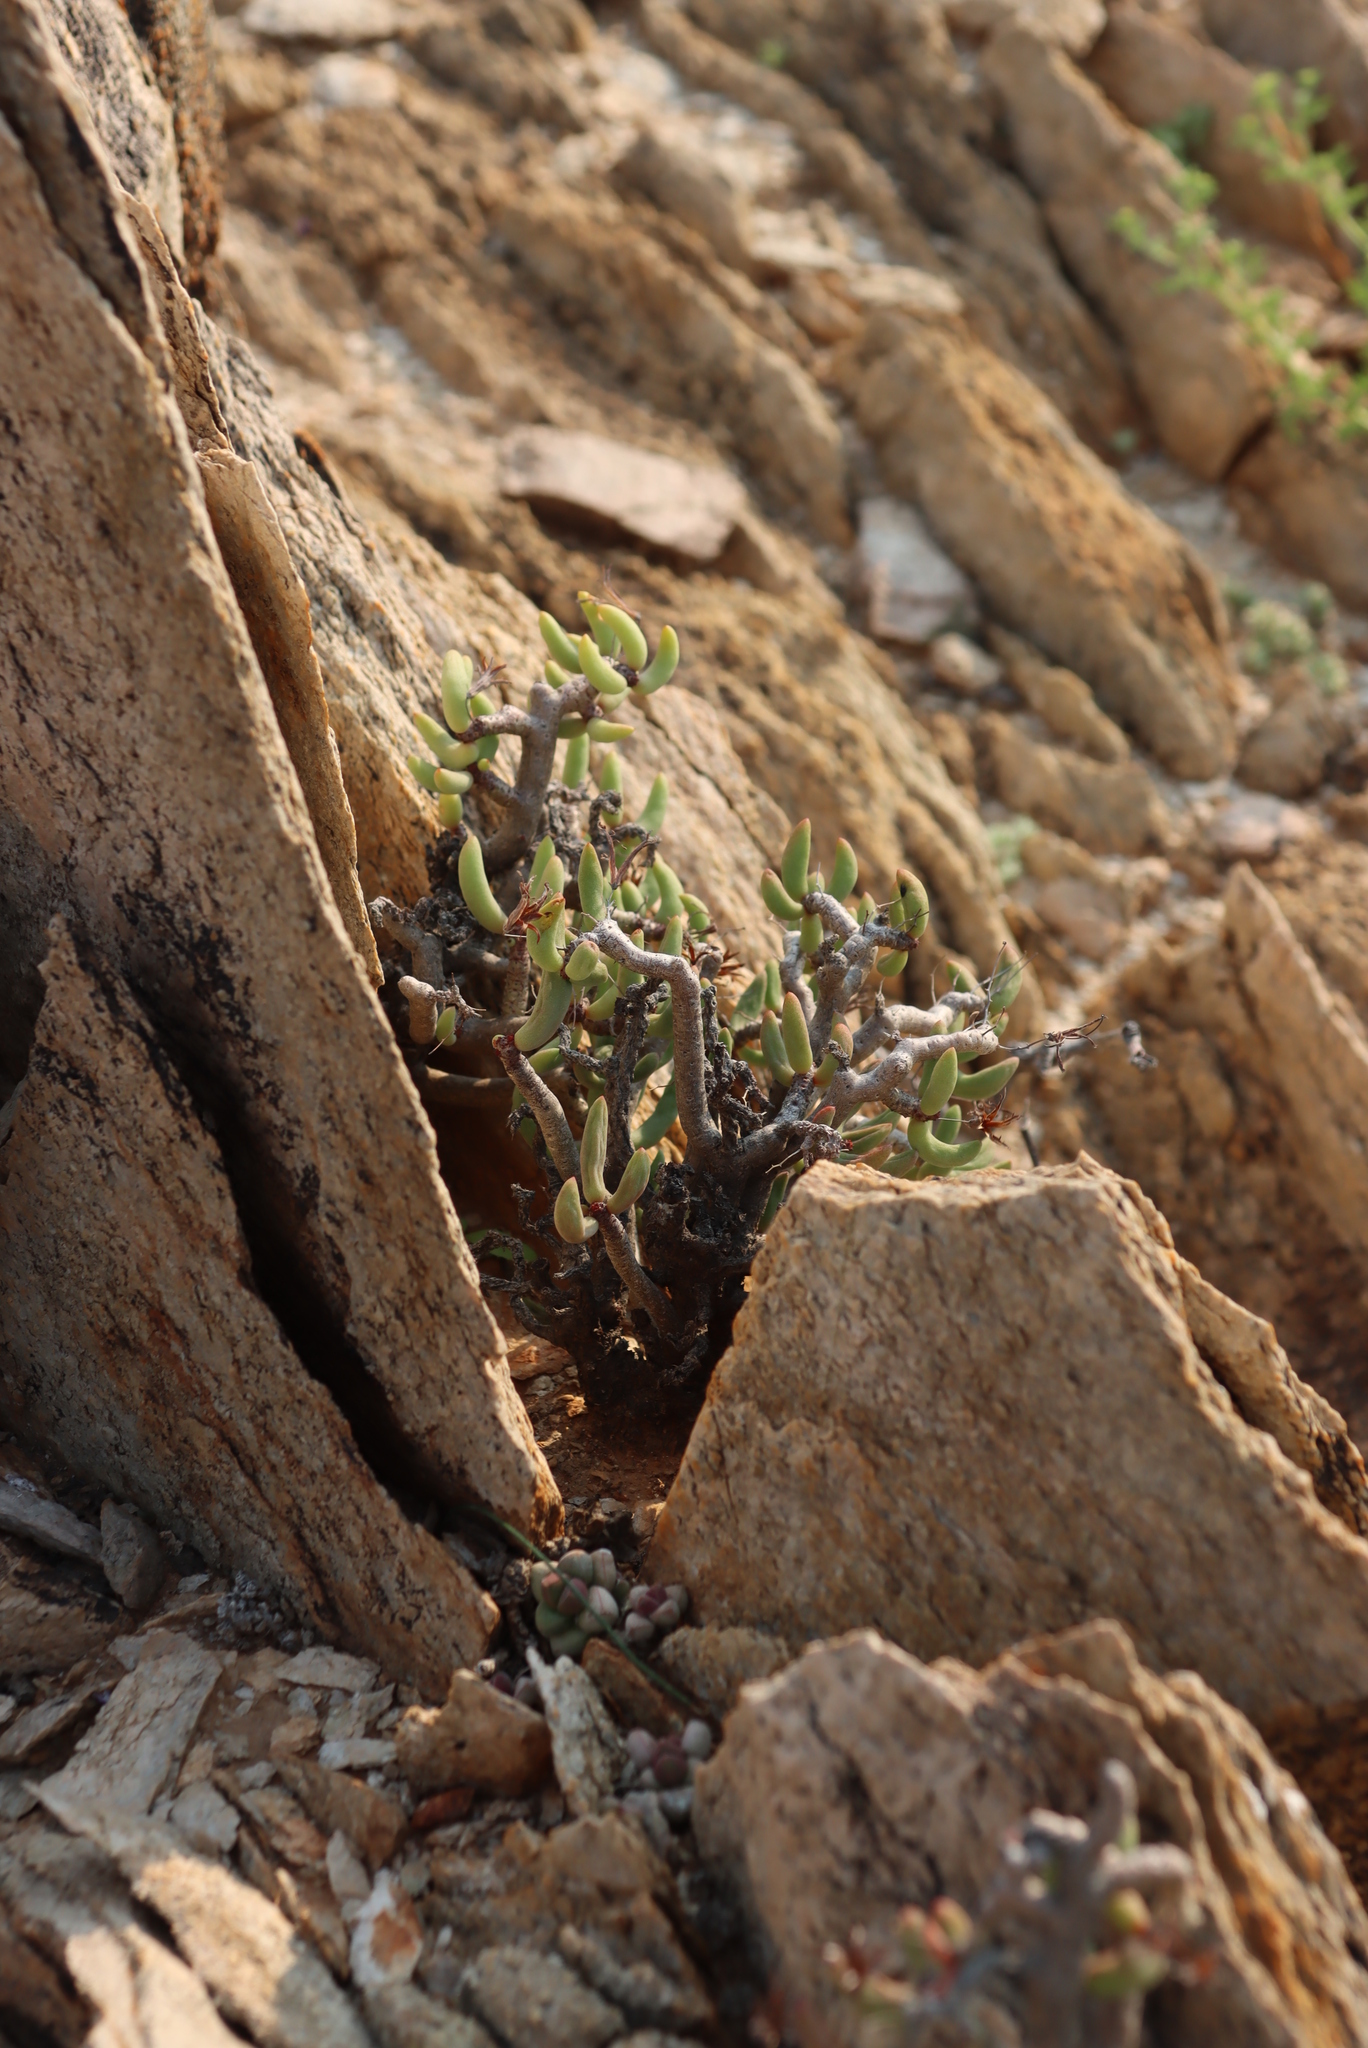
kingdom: Plantae
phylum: Tracheophyta
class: Magnoliopsida
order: Saxifragales
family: Crassulaceae
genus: Tylecodon
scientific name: Tylecodon buchholzianus
